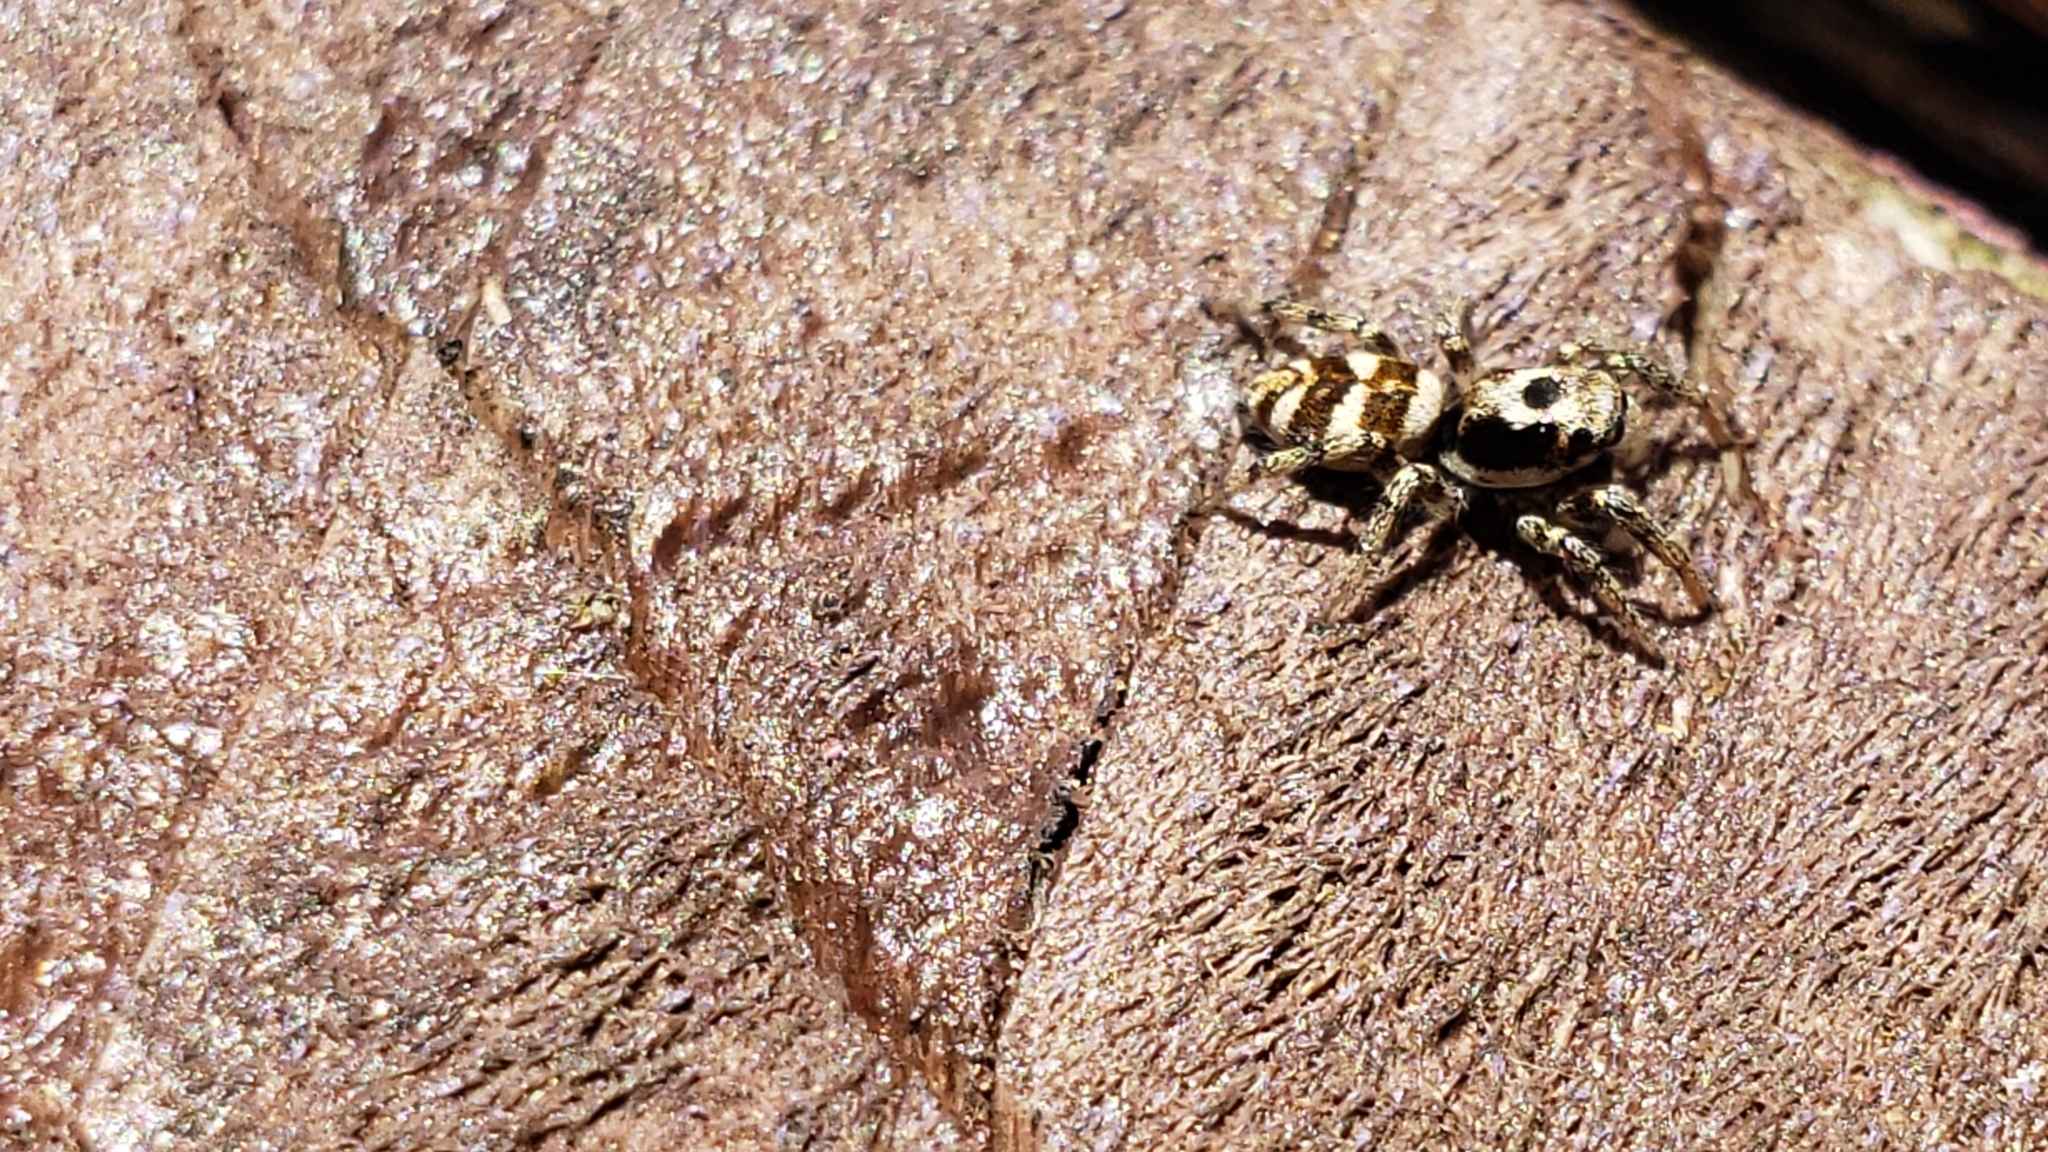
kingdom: Animalia
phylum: Arthropoda
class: Arachnida
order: Araneae
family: Salticidae
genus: Salticus
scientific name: Salticus scenicus
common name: Zebra jumper
